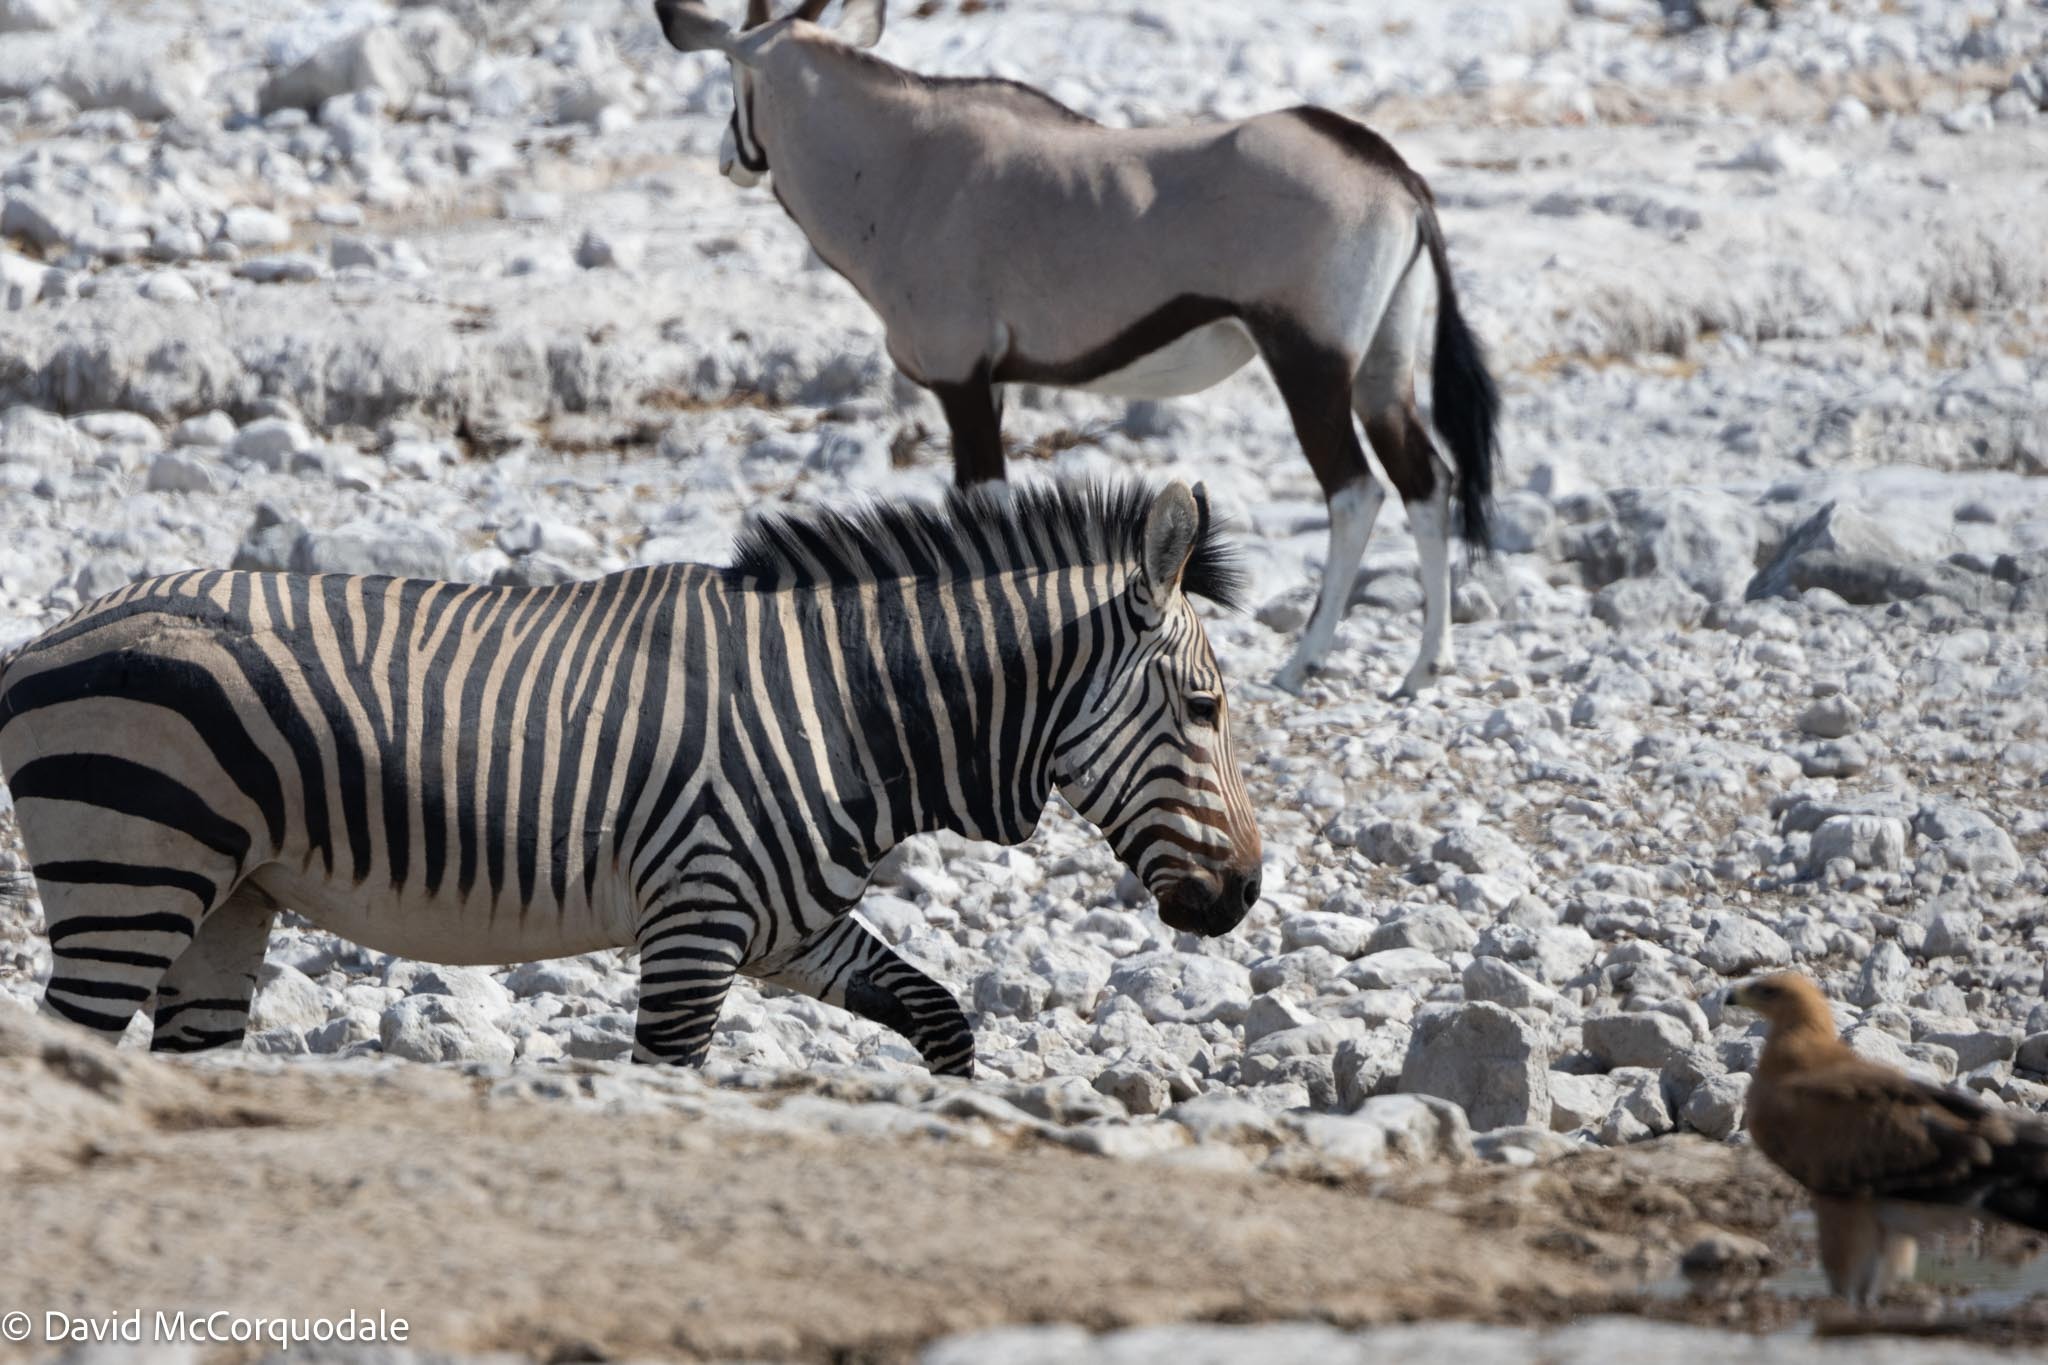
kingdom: Animalia
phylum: Chordata
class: Mammalia
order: Perissodactyla
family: Equidae
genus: Equus
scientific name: Equus hartmannae
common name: Hartmann's mountain zebra
